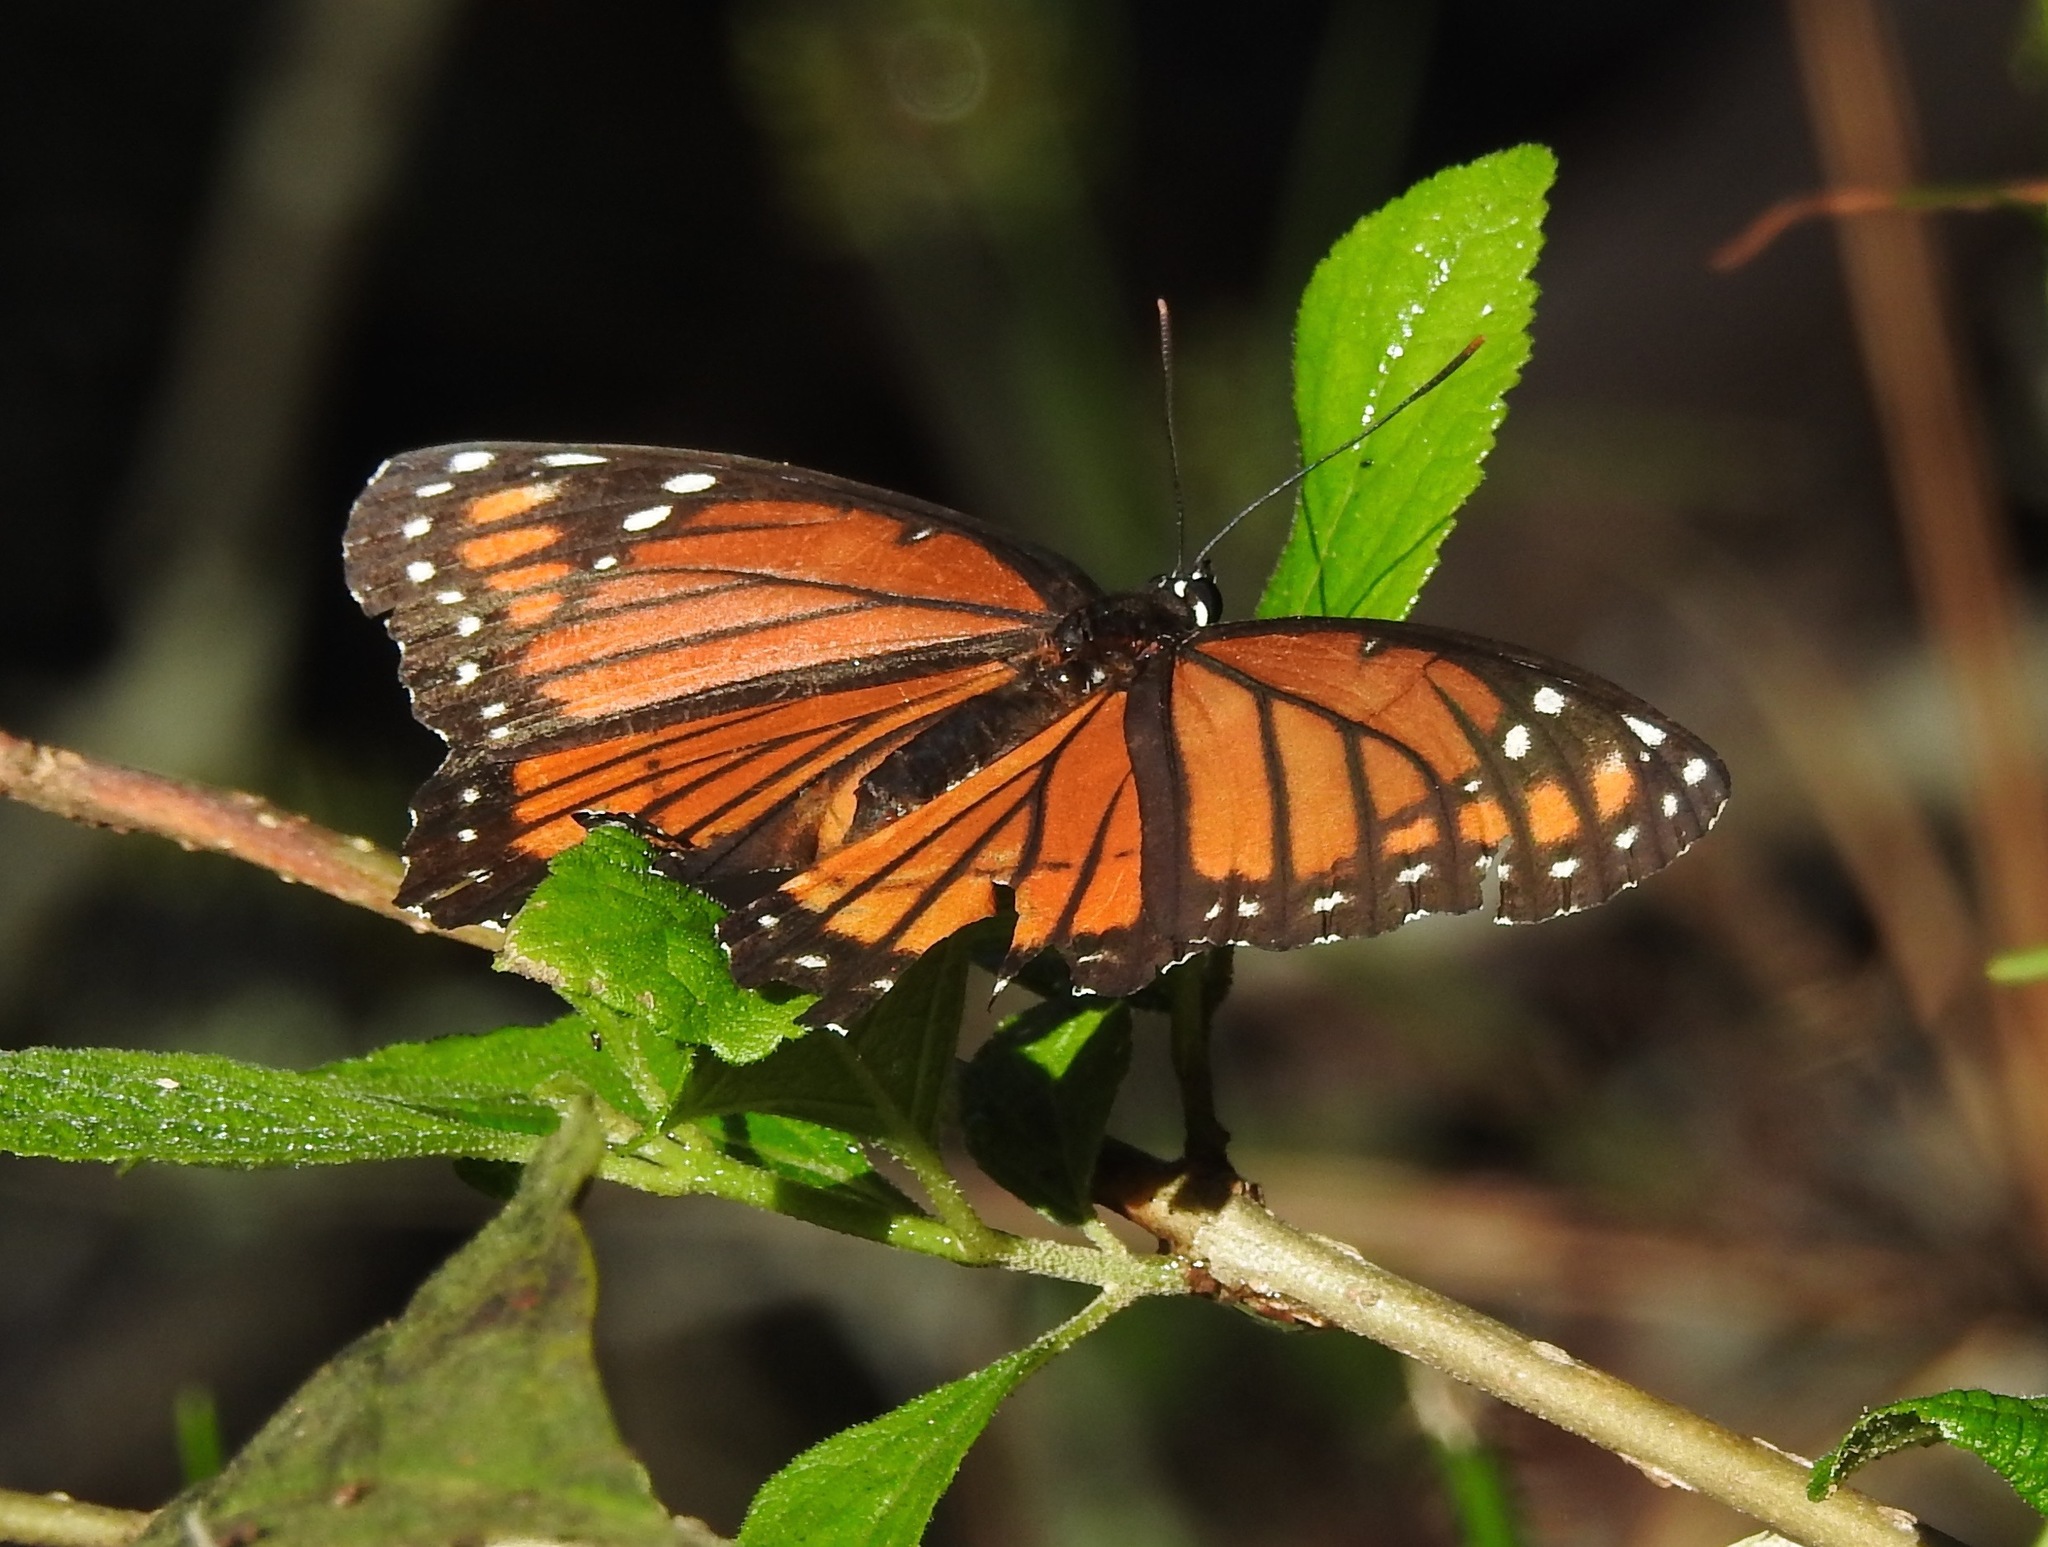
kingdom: Animalia
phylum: Arthropoda
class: Insecta
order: Lepidoptera
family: Nymphalidae
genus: Limenitis
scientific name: Limenitis archippus
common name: Viceroy
